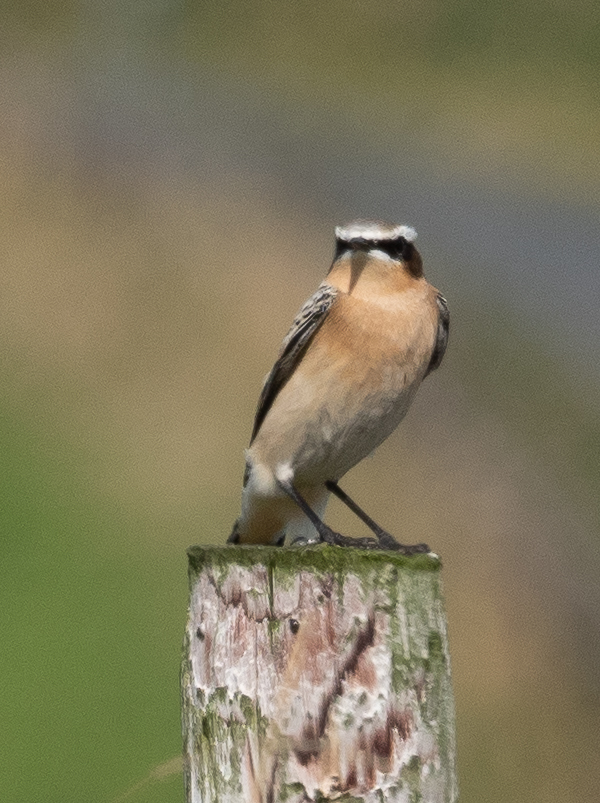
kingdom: Animalia
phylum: Chordata
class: Aves
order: Passeriformes
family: Muscicapidae
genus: Oenanthe
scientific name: Oenanthe oenanthe
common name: Northern wheatear
